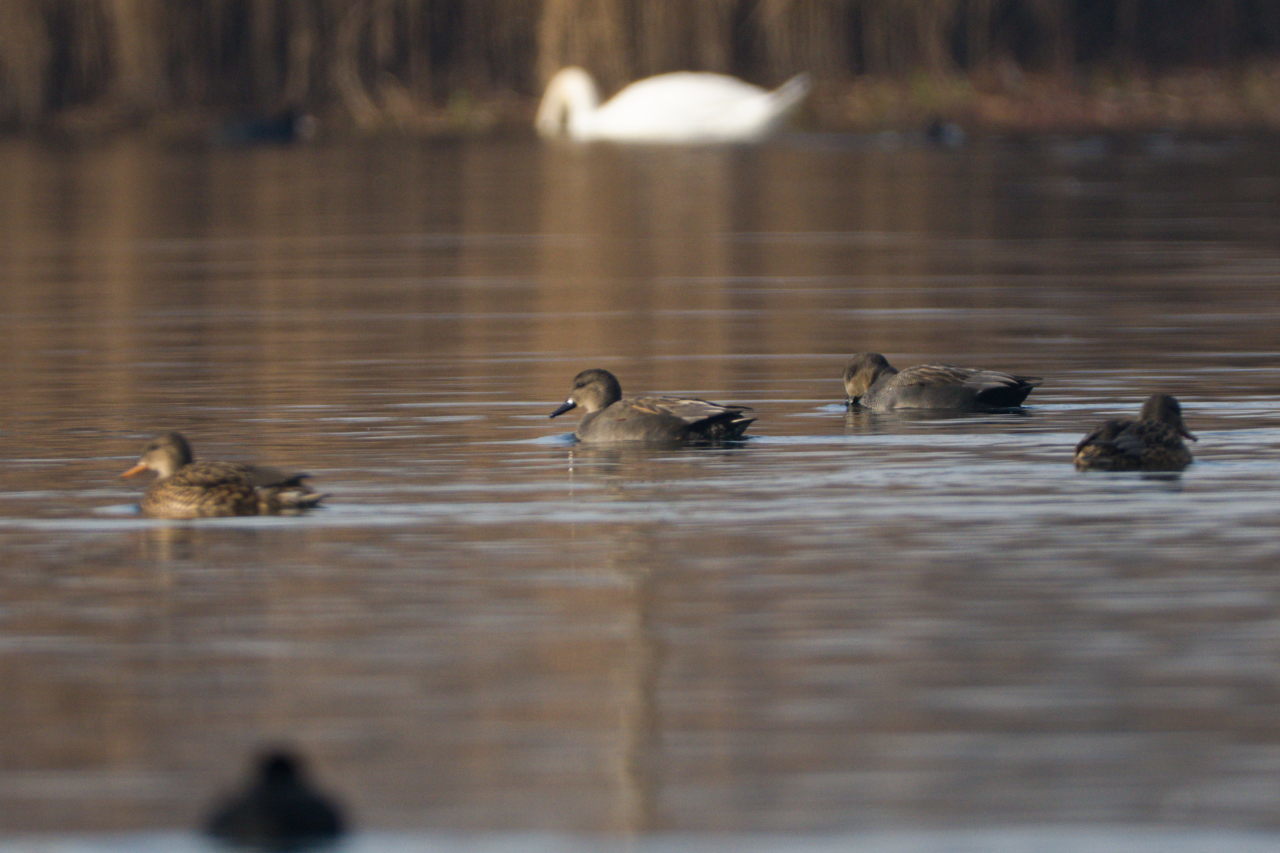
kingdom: Animalia
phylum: Chordata
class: Aves
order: Anseriformes
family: Anatidae
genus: Mareca
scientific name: Mareca strepera
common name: Gadwall
